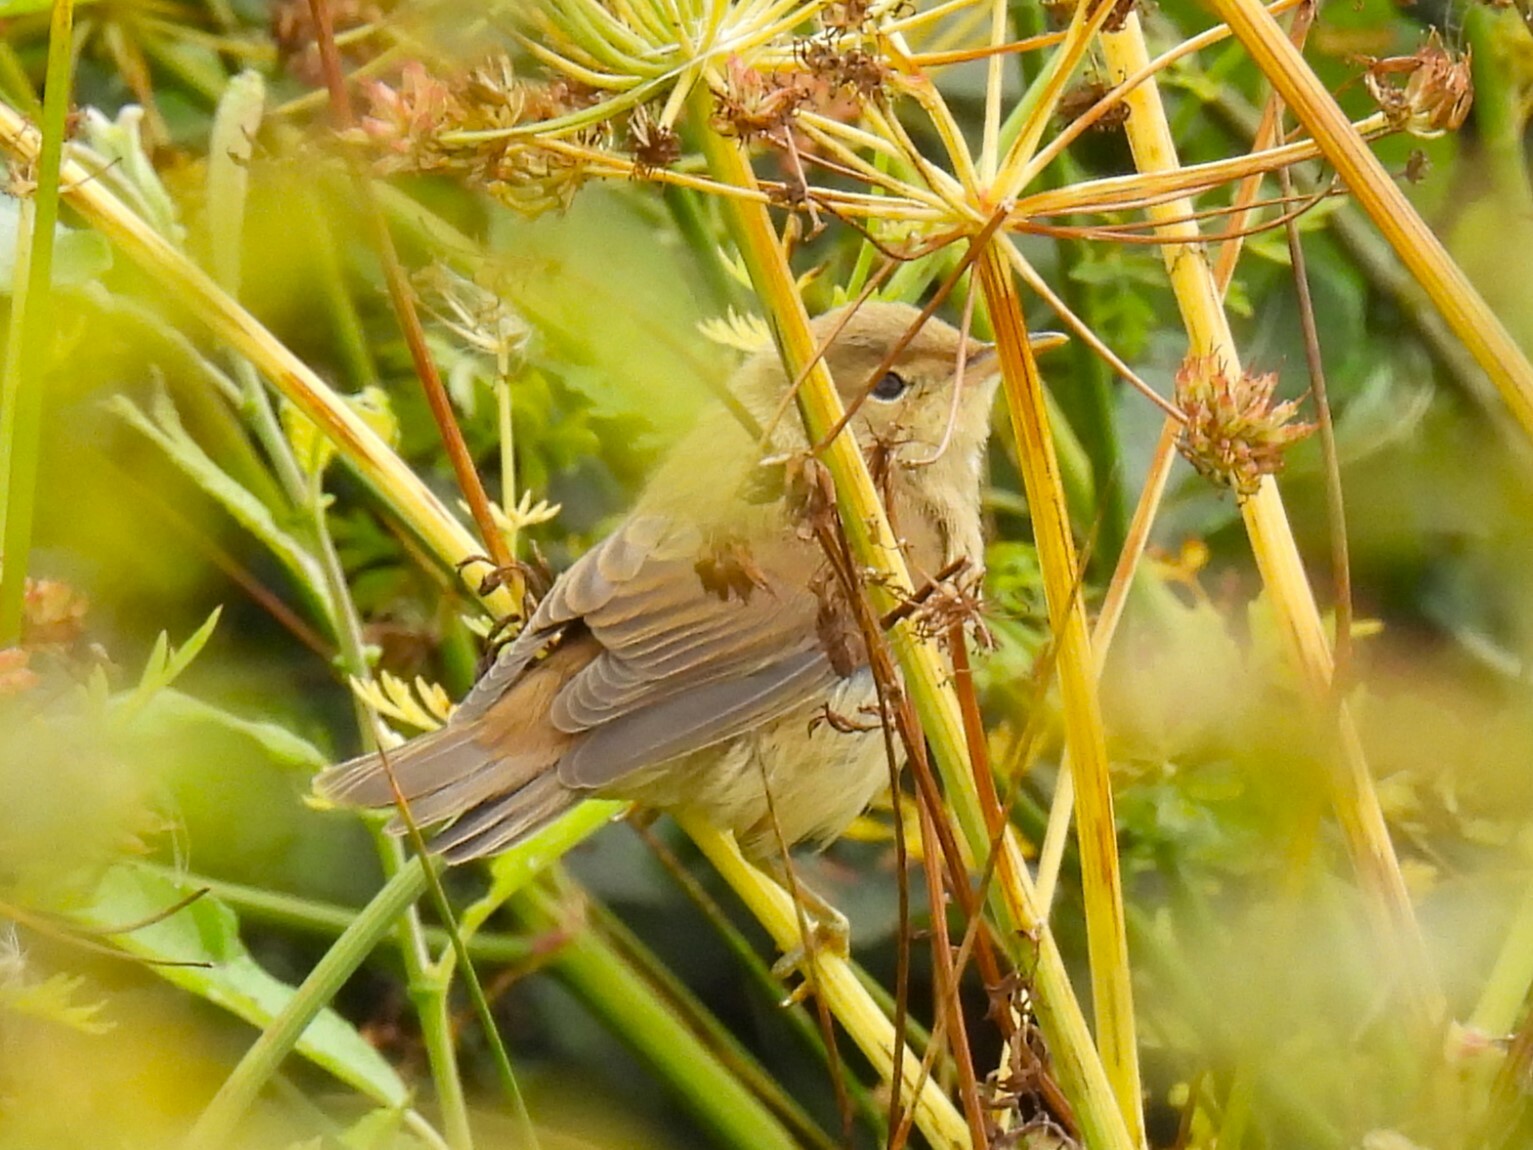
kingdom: Animalia
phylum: Chordata
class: Aves
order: Passeriformes
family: Acrocephalidae
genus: Acrocephalus
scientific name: Acrocephalus scirpaceus
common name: Eurasian reed warbler
